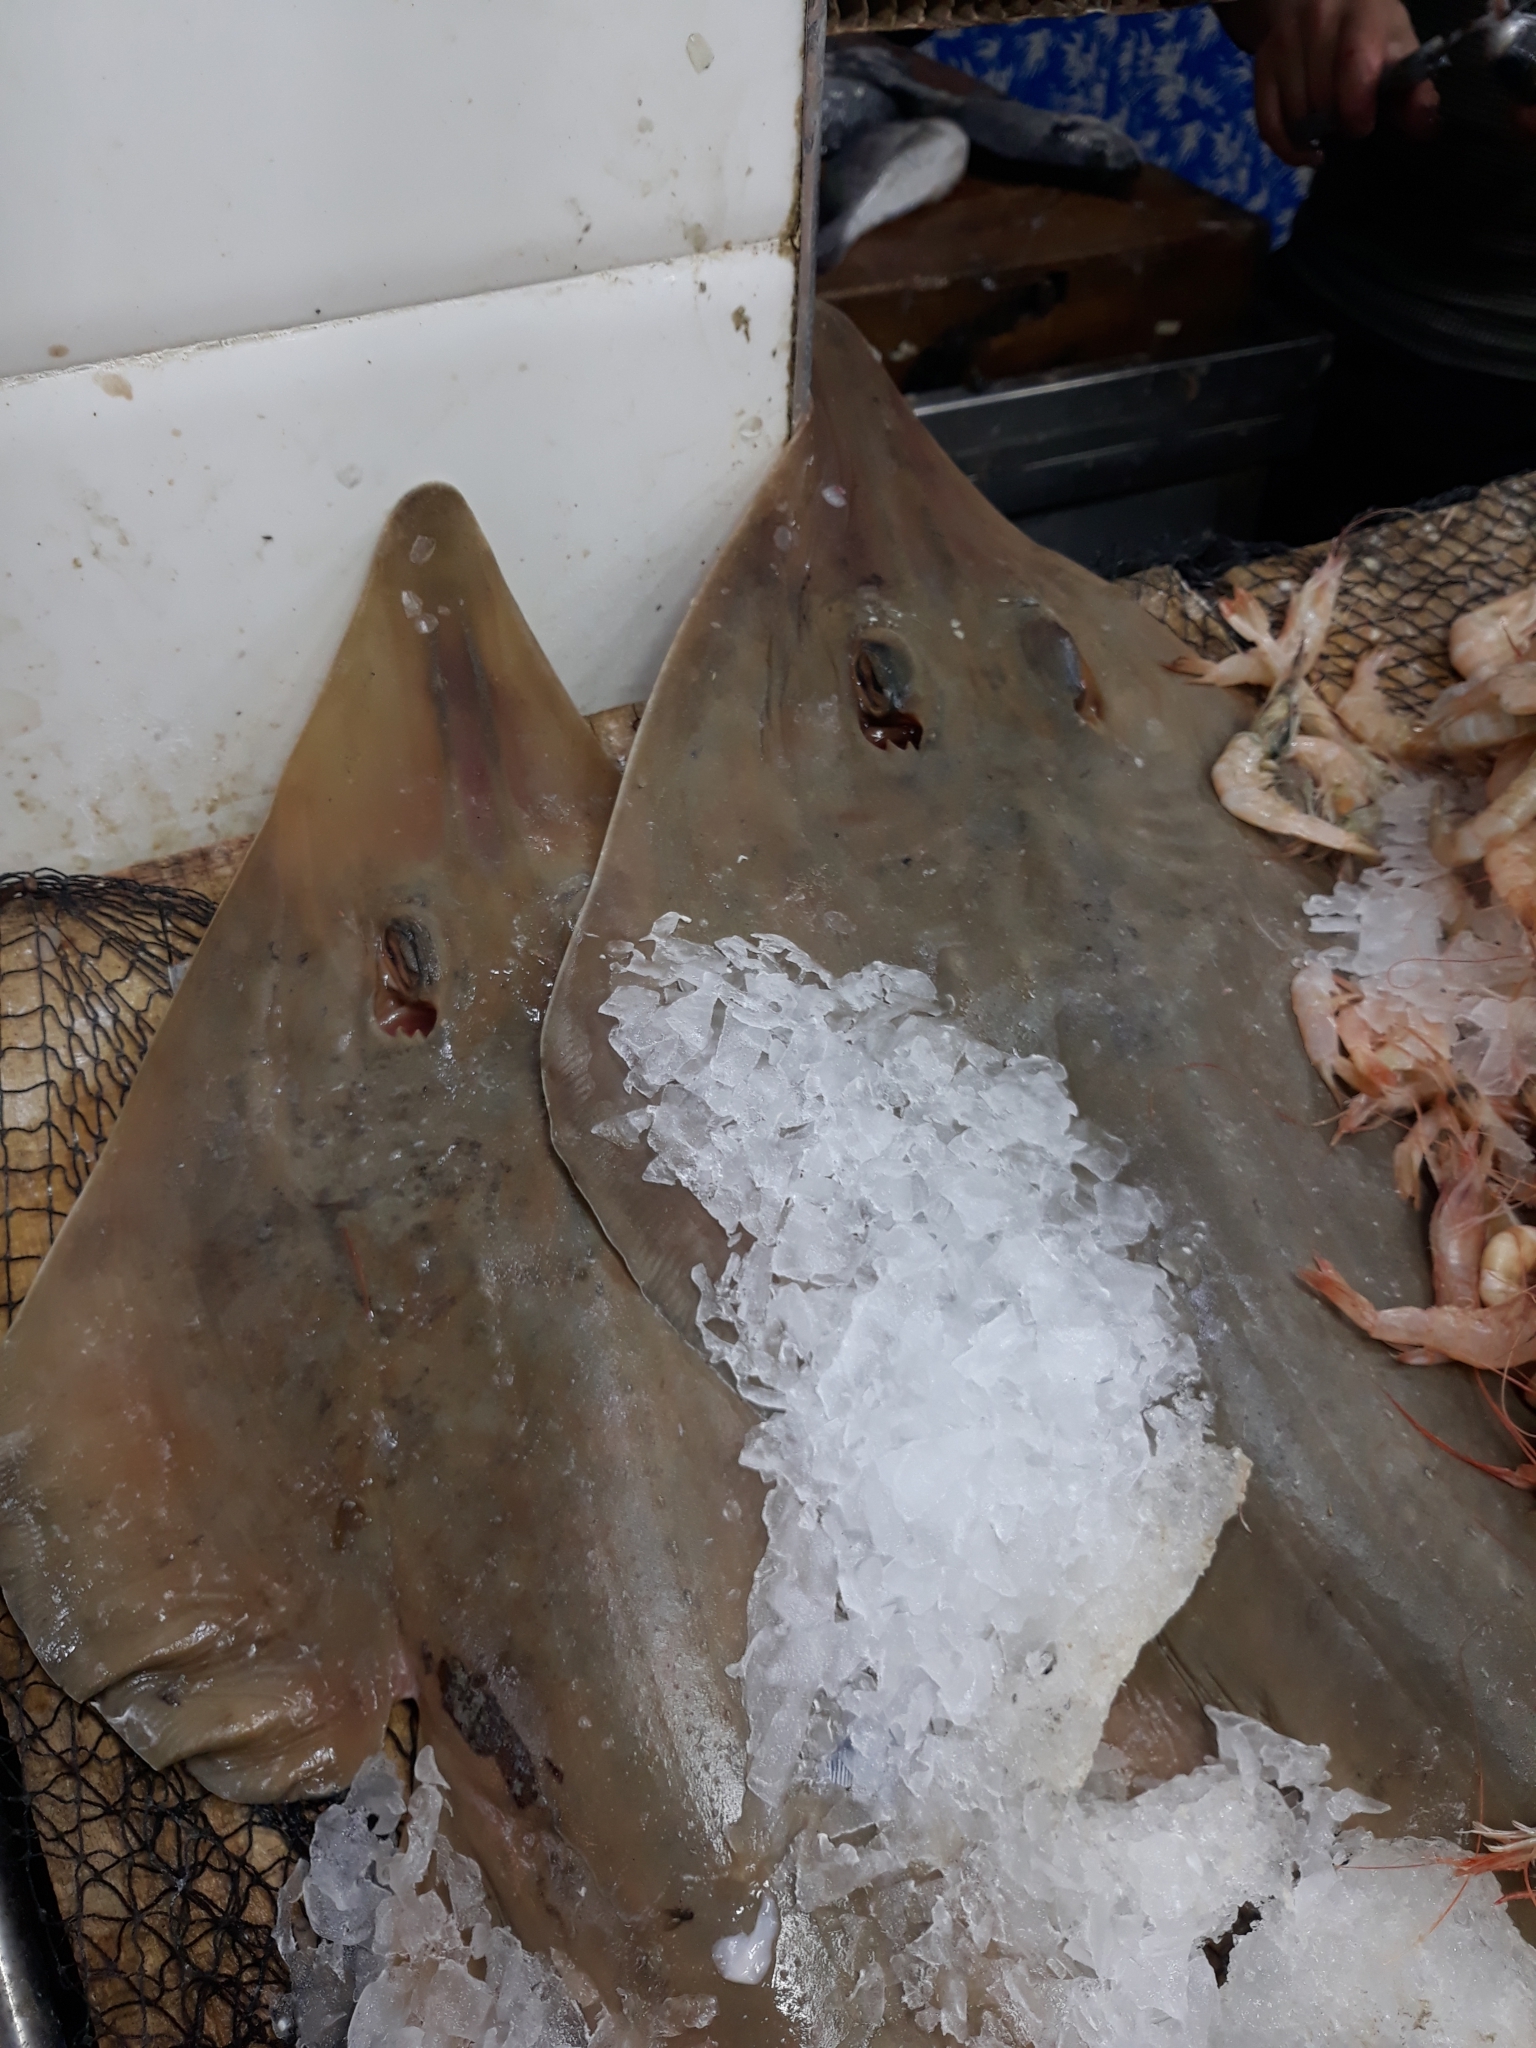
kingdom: Animalia
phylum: Chordata
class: Elasmobranchii
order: Rhinopristiformes
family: Rhinobatidae
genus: Rhinobatos
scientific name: Rhinobatos rhinobatos
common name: Common guitarfish
